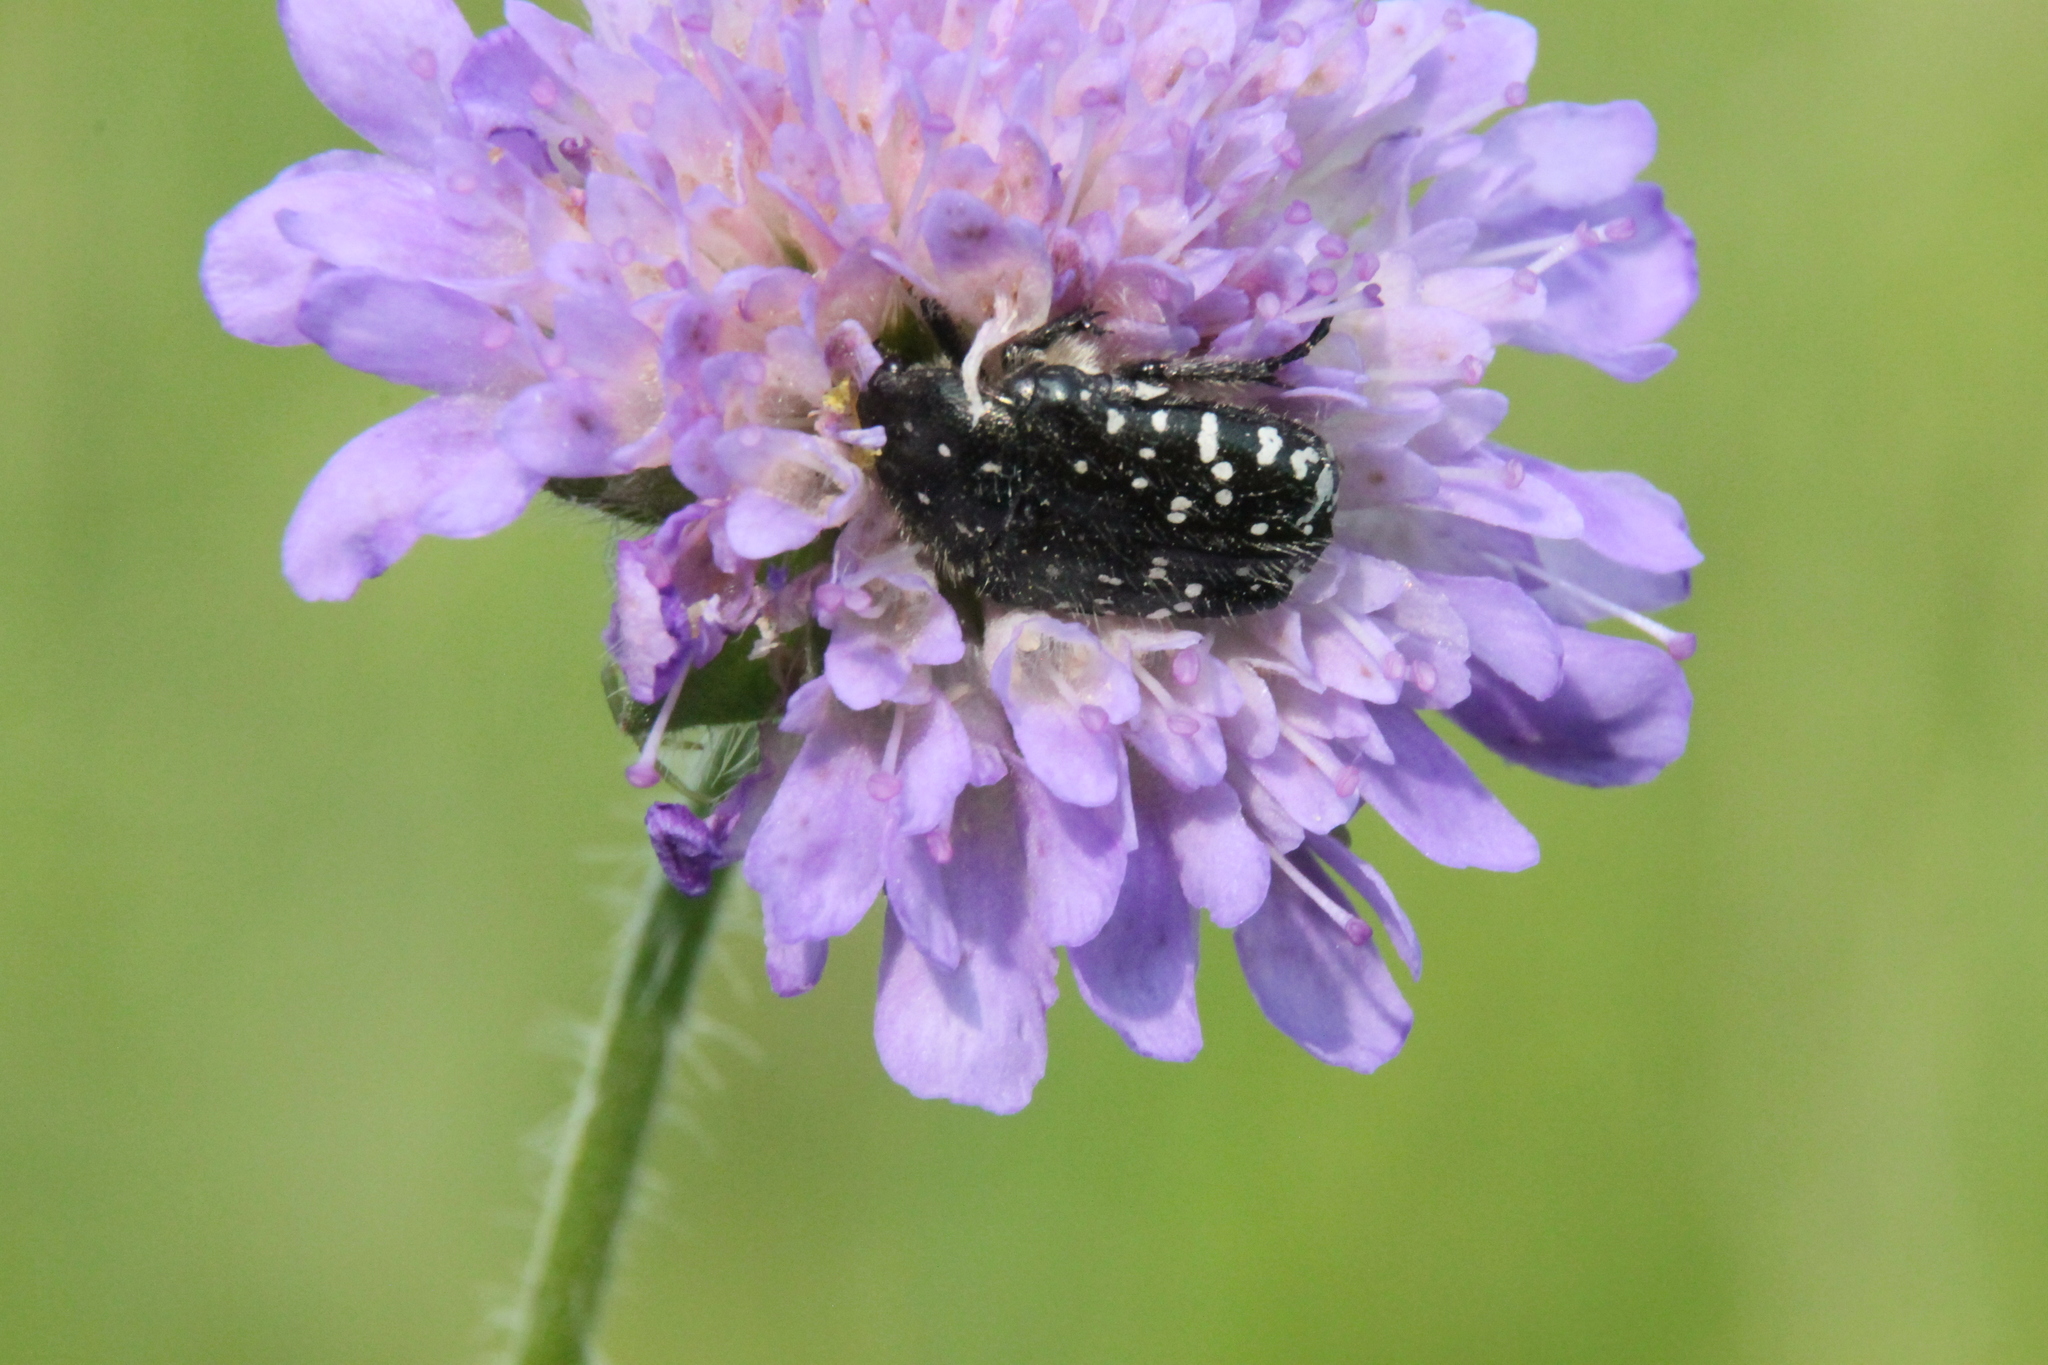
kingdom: Animalia
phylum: Arthropoda
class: Insecta
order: Coleoptera
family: Scarabaeidae
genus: Oxythyrea
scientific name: Oxythyrea funesta
